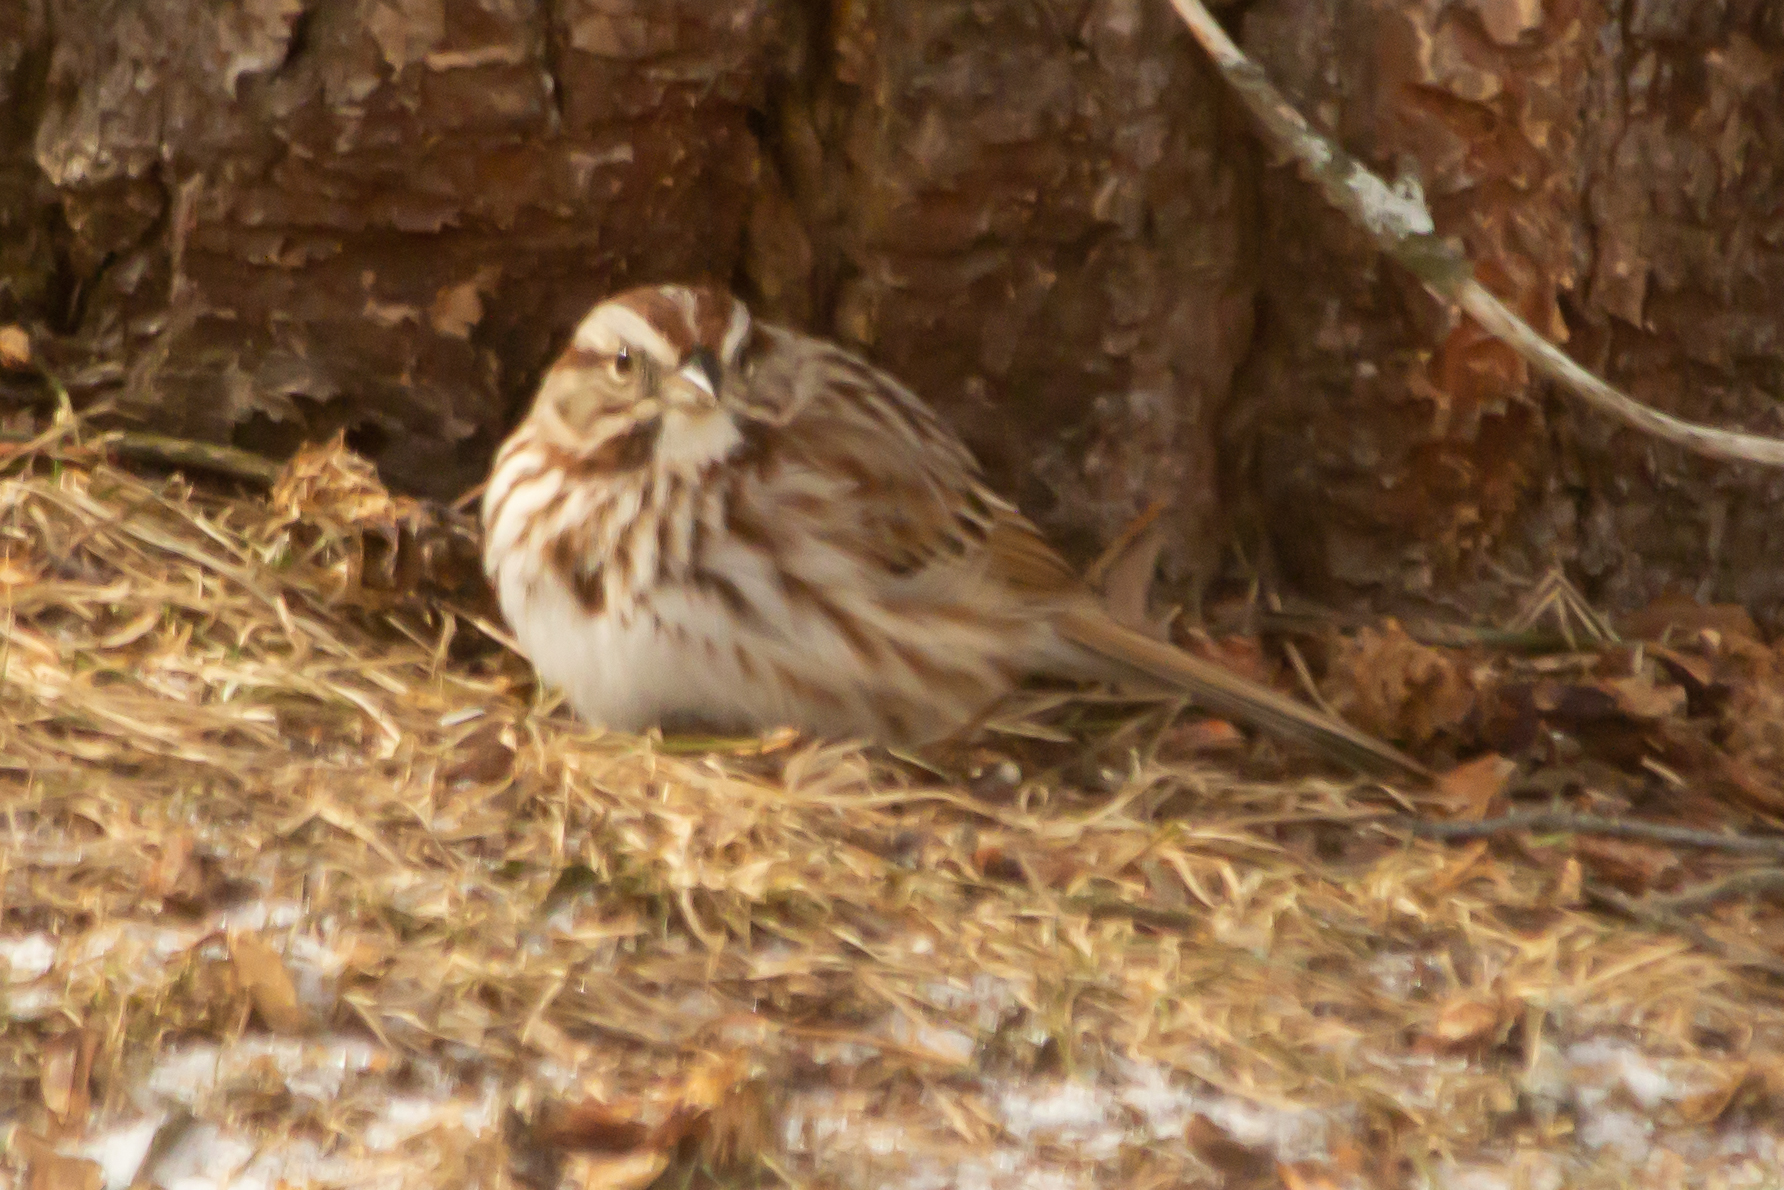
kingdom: Animalia
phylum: Chordata
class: Aves
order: Passeriformes
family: Passerellidae
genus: Melospiza
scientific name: Melospiza melodia
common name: Song sparrow
